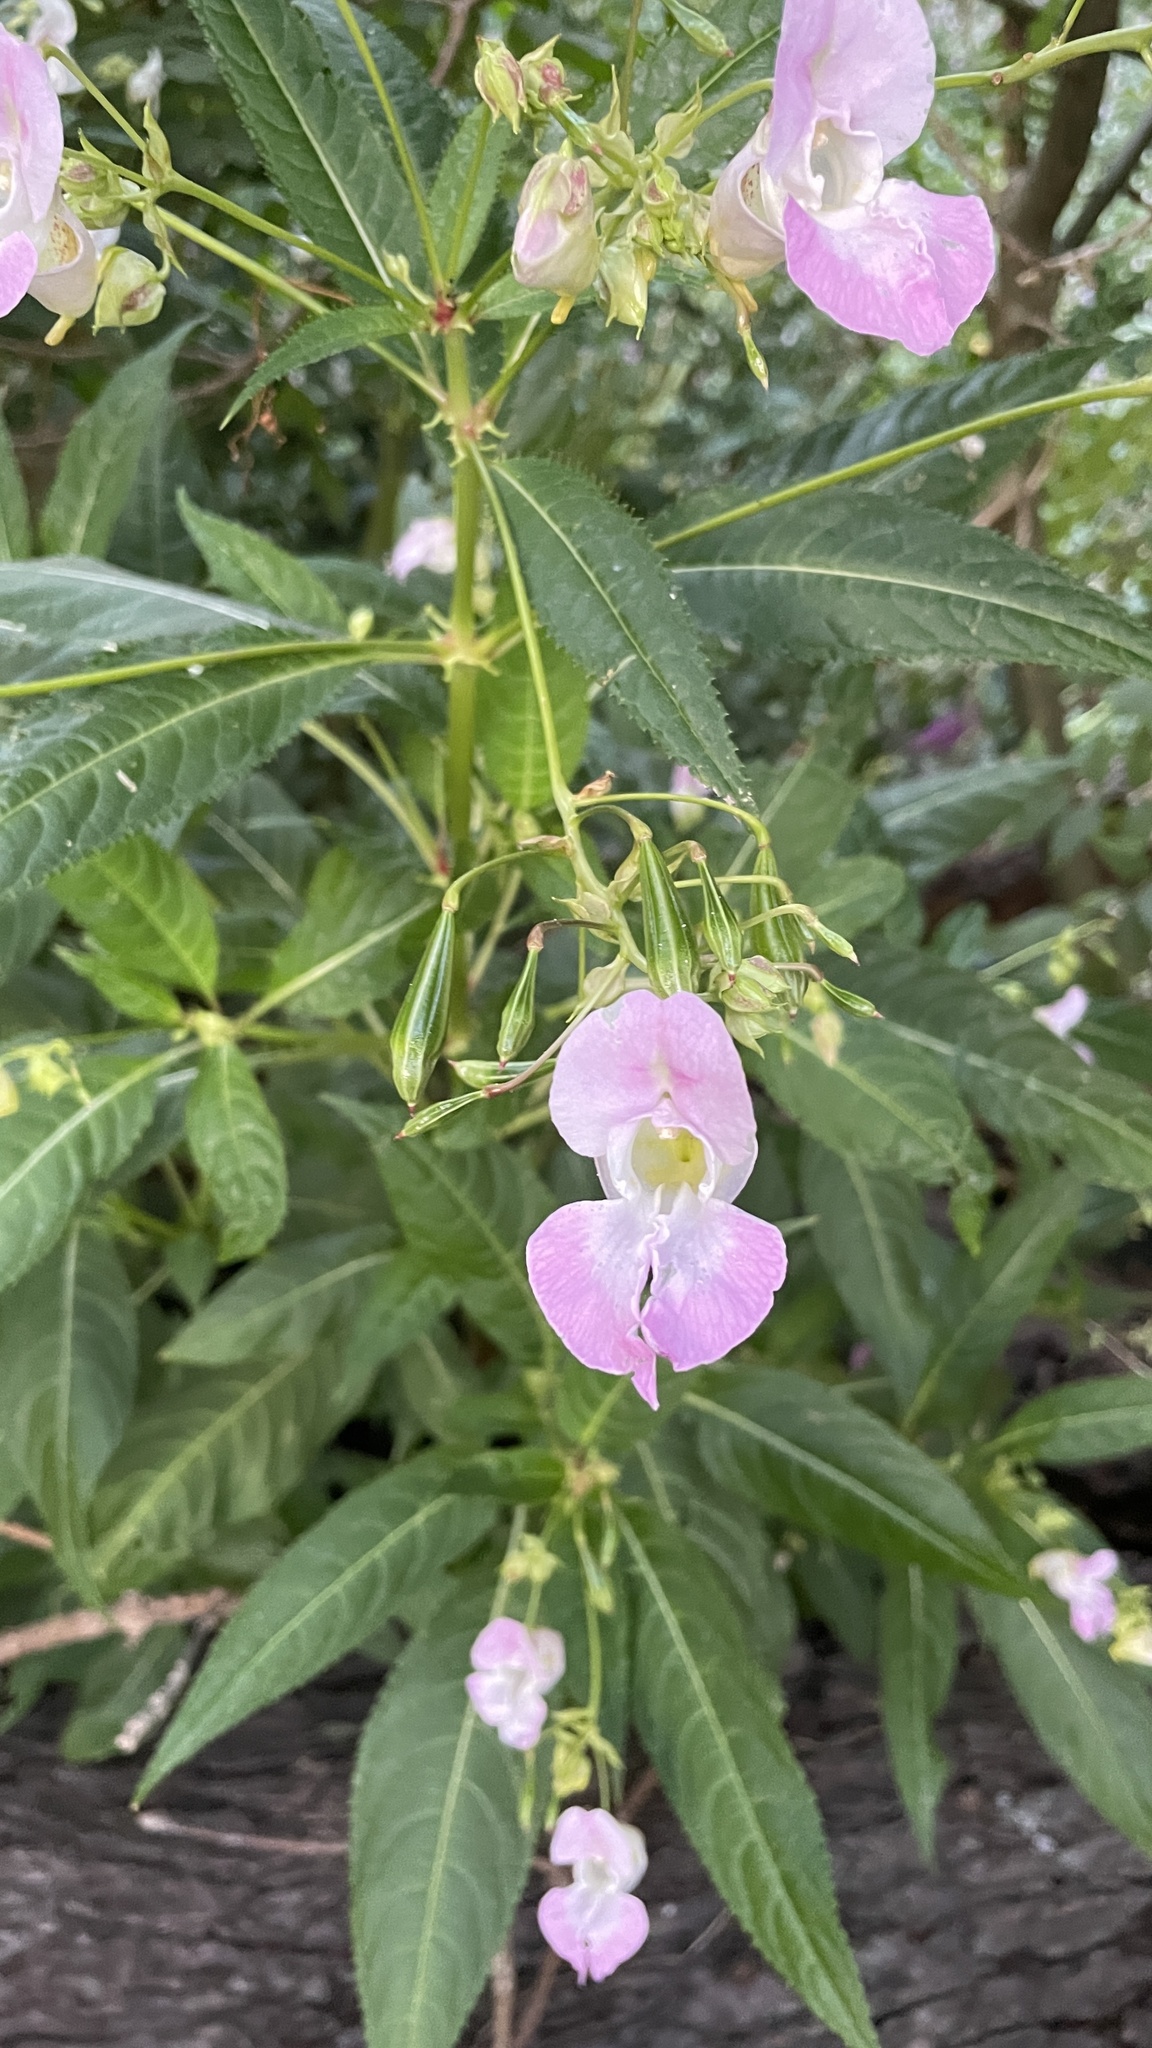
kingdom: Plantae
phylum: Tracheophyta
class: Magnoliopsida
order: Ericales
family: Balsaminaceae
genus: Impatiens
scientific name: Impatiens glandulifera
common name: Himalayan balsam
